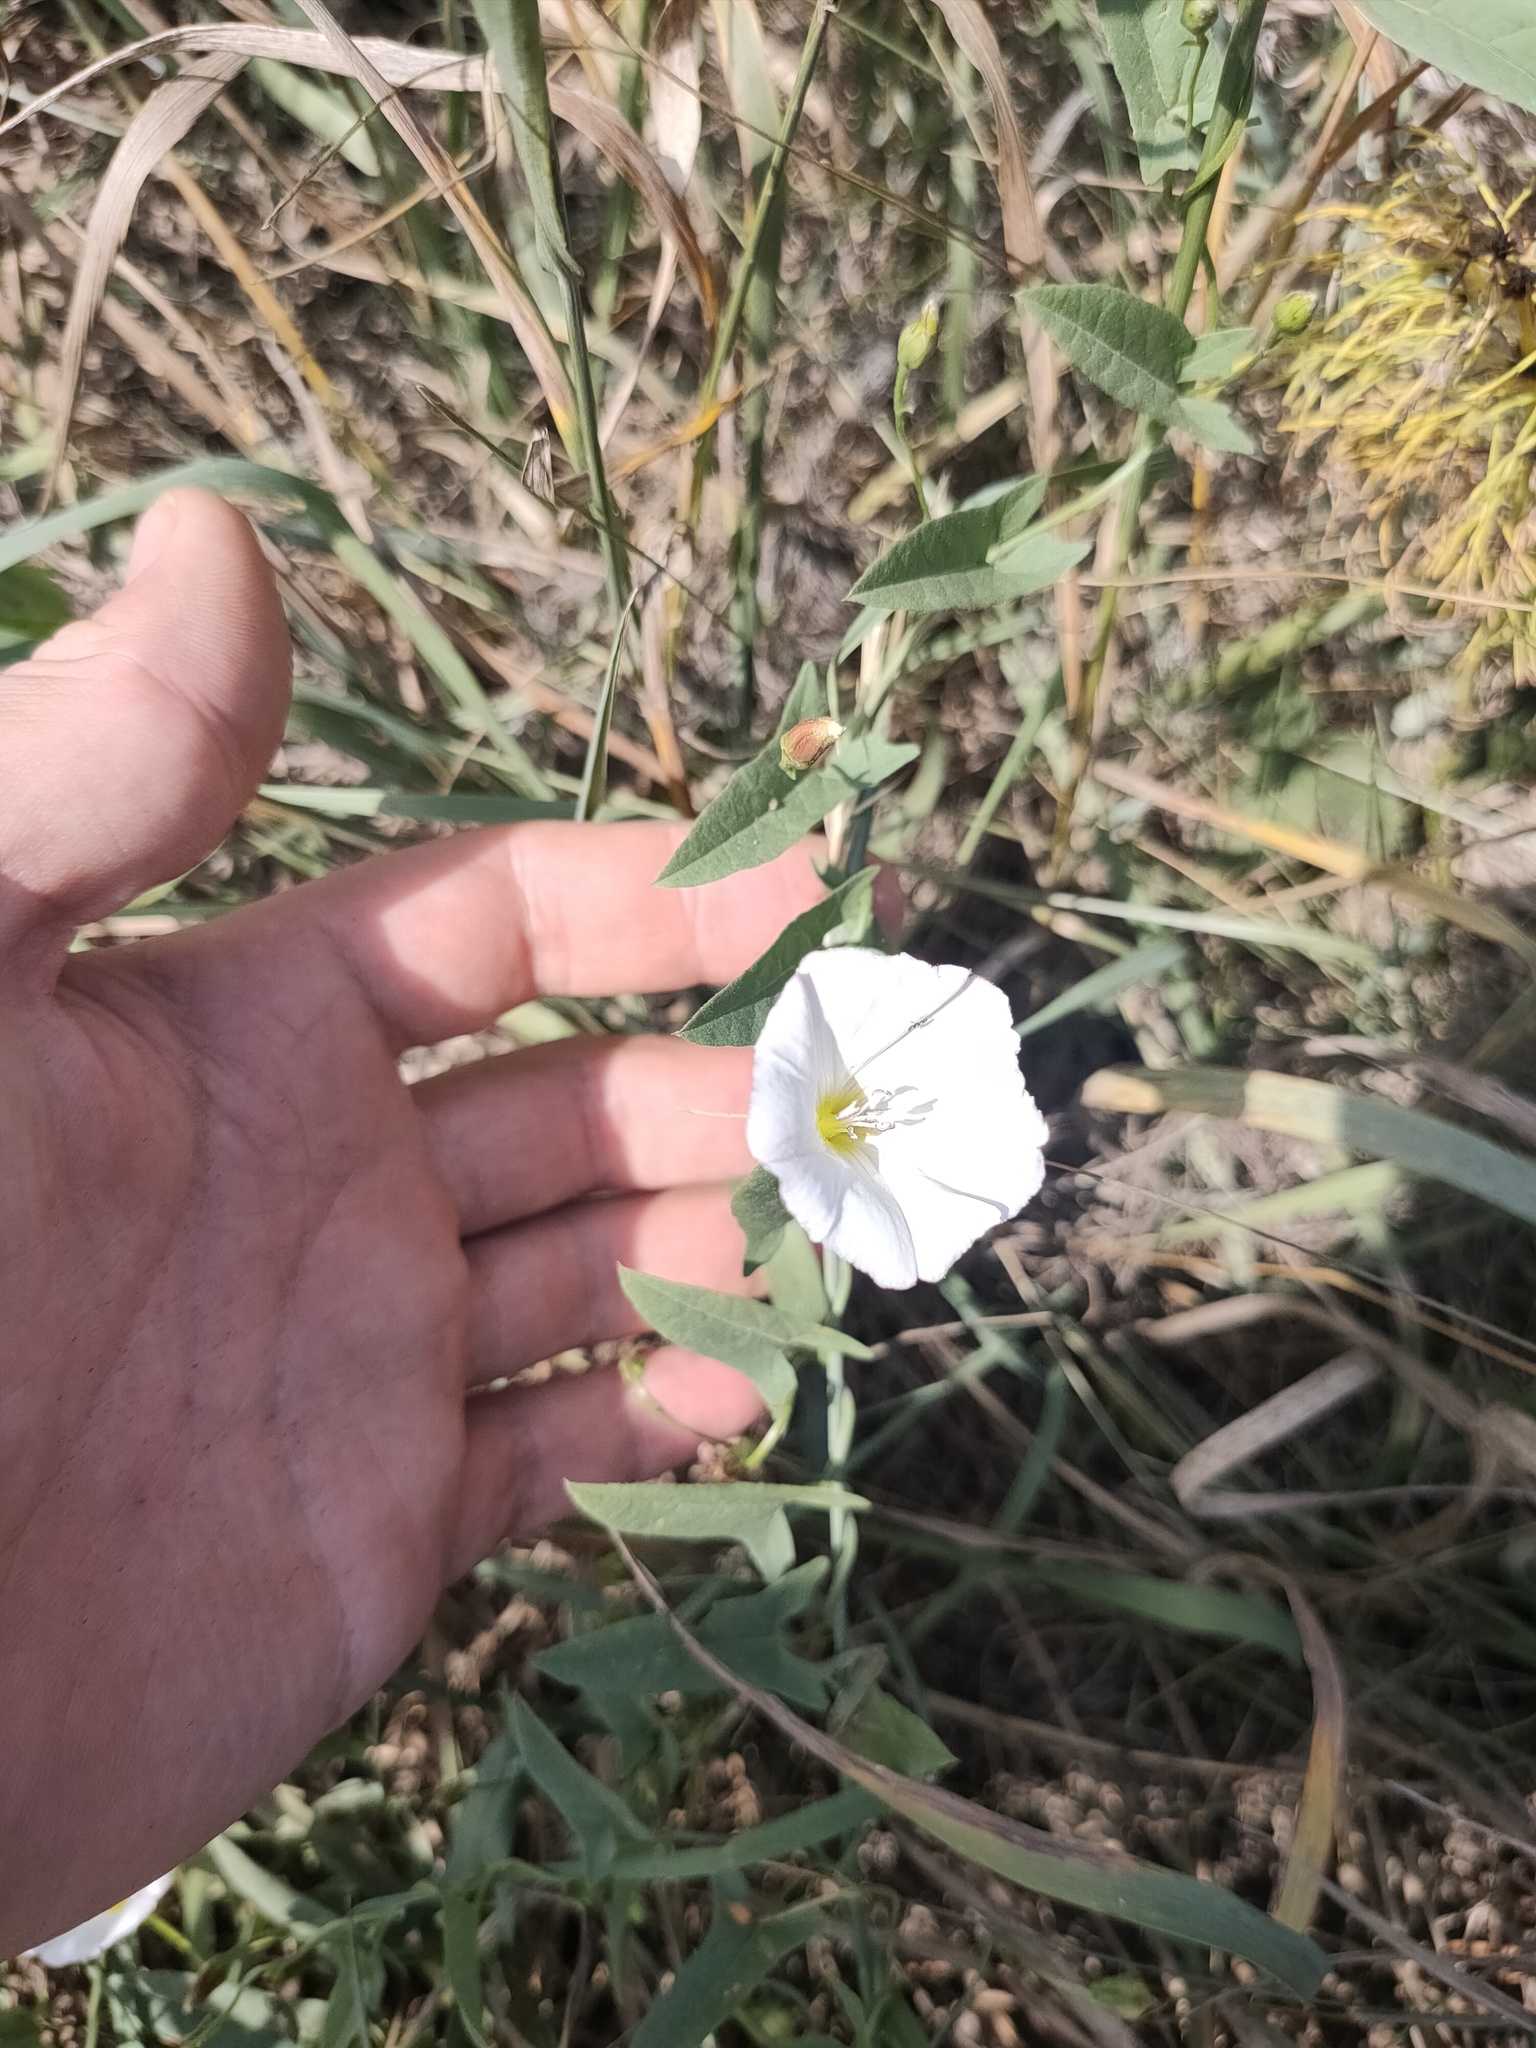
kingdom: Plantae
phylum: Tracheophyta
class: Magnoliopsida
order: Solanales
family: Convolvulaceae
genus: Convolvulus
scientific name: Convolvulus arvensis
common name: Field bindweed
